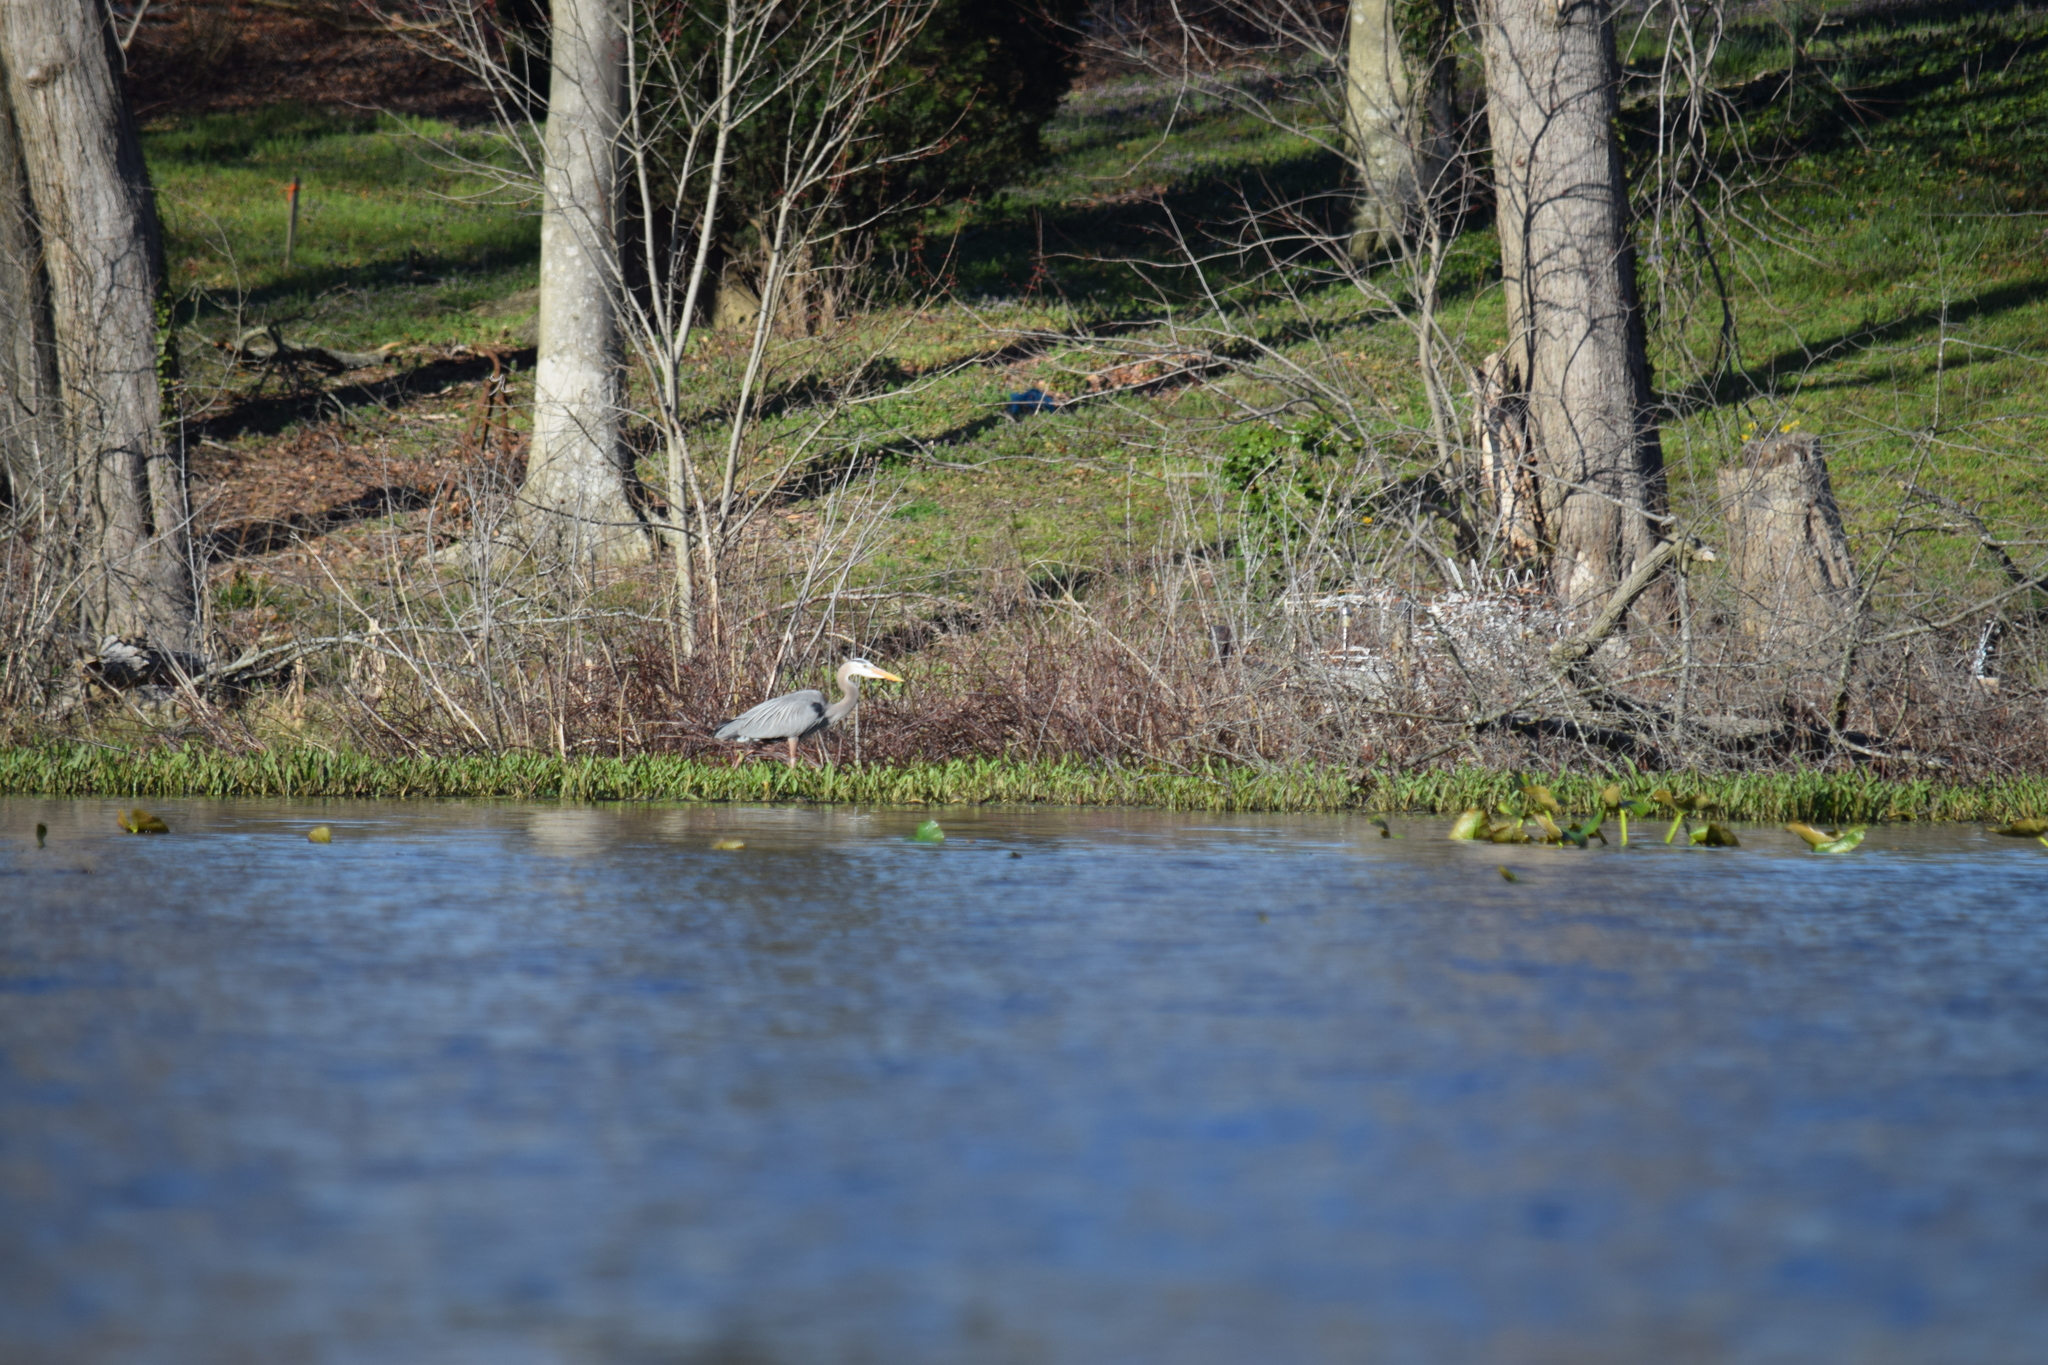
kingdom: Animalia
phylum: Chordata
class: Aves
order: Pelecaniformes
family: Ardeidae
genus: Ardea
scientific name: Ardea herodias
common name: Great blue heron
